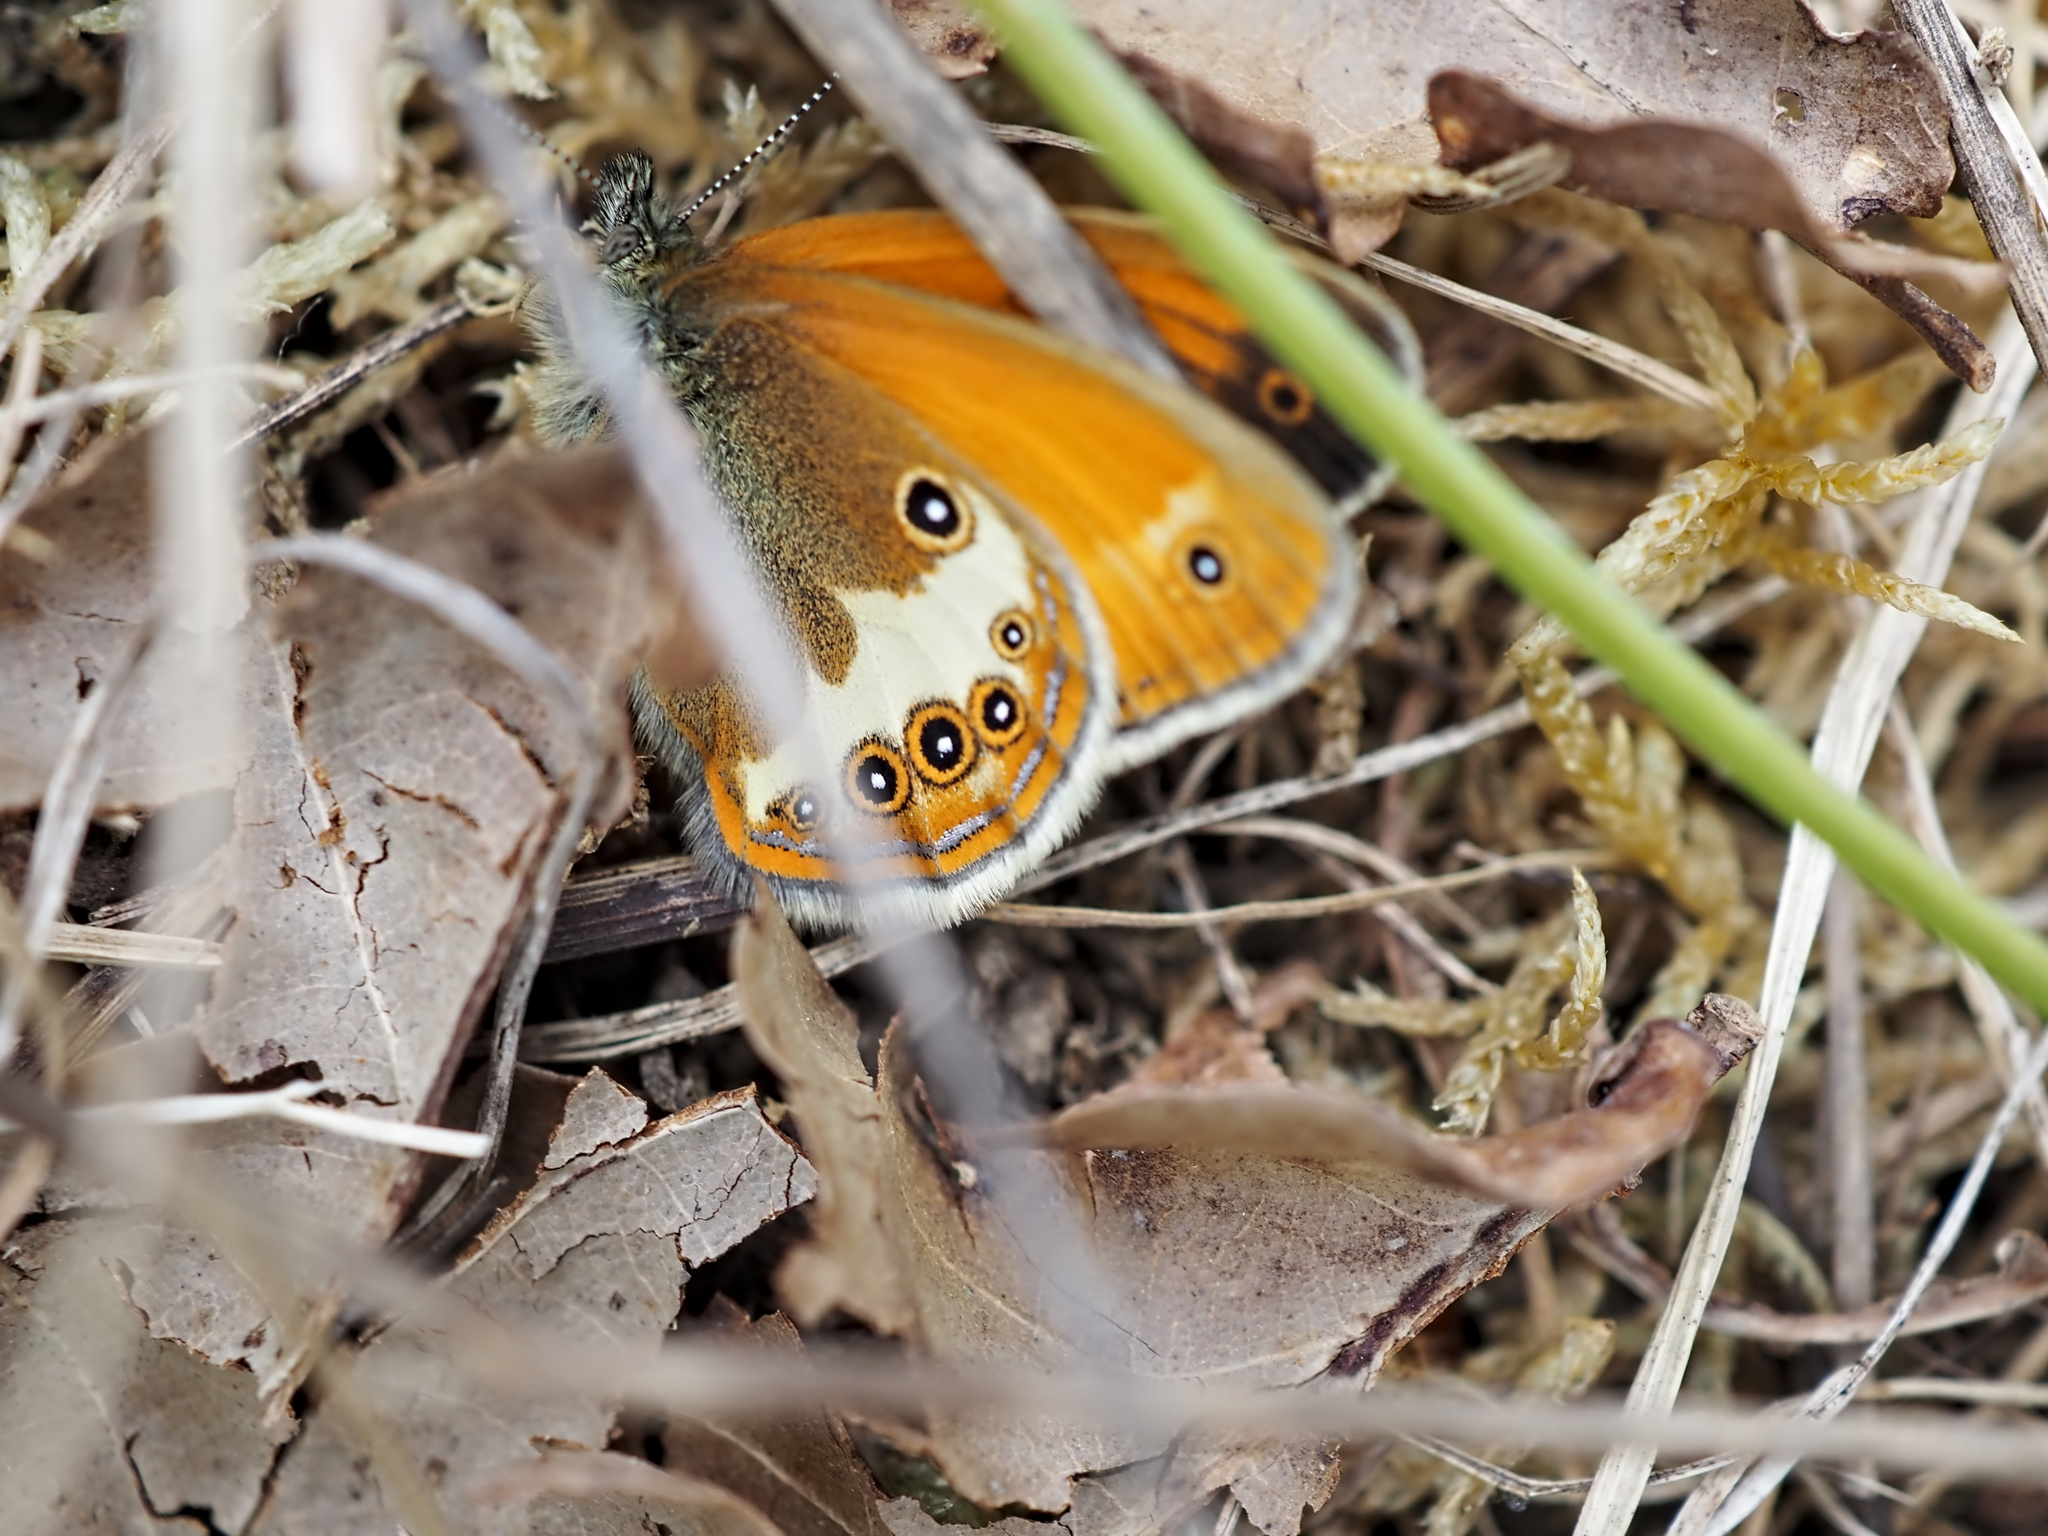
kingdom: Animalia
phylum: Arthropoda
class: Insecta
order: Lepidoptera
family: Nymphalidae
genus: Coenonympha
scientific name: Coenonympha arcania
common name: Pearly heath
